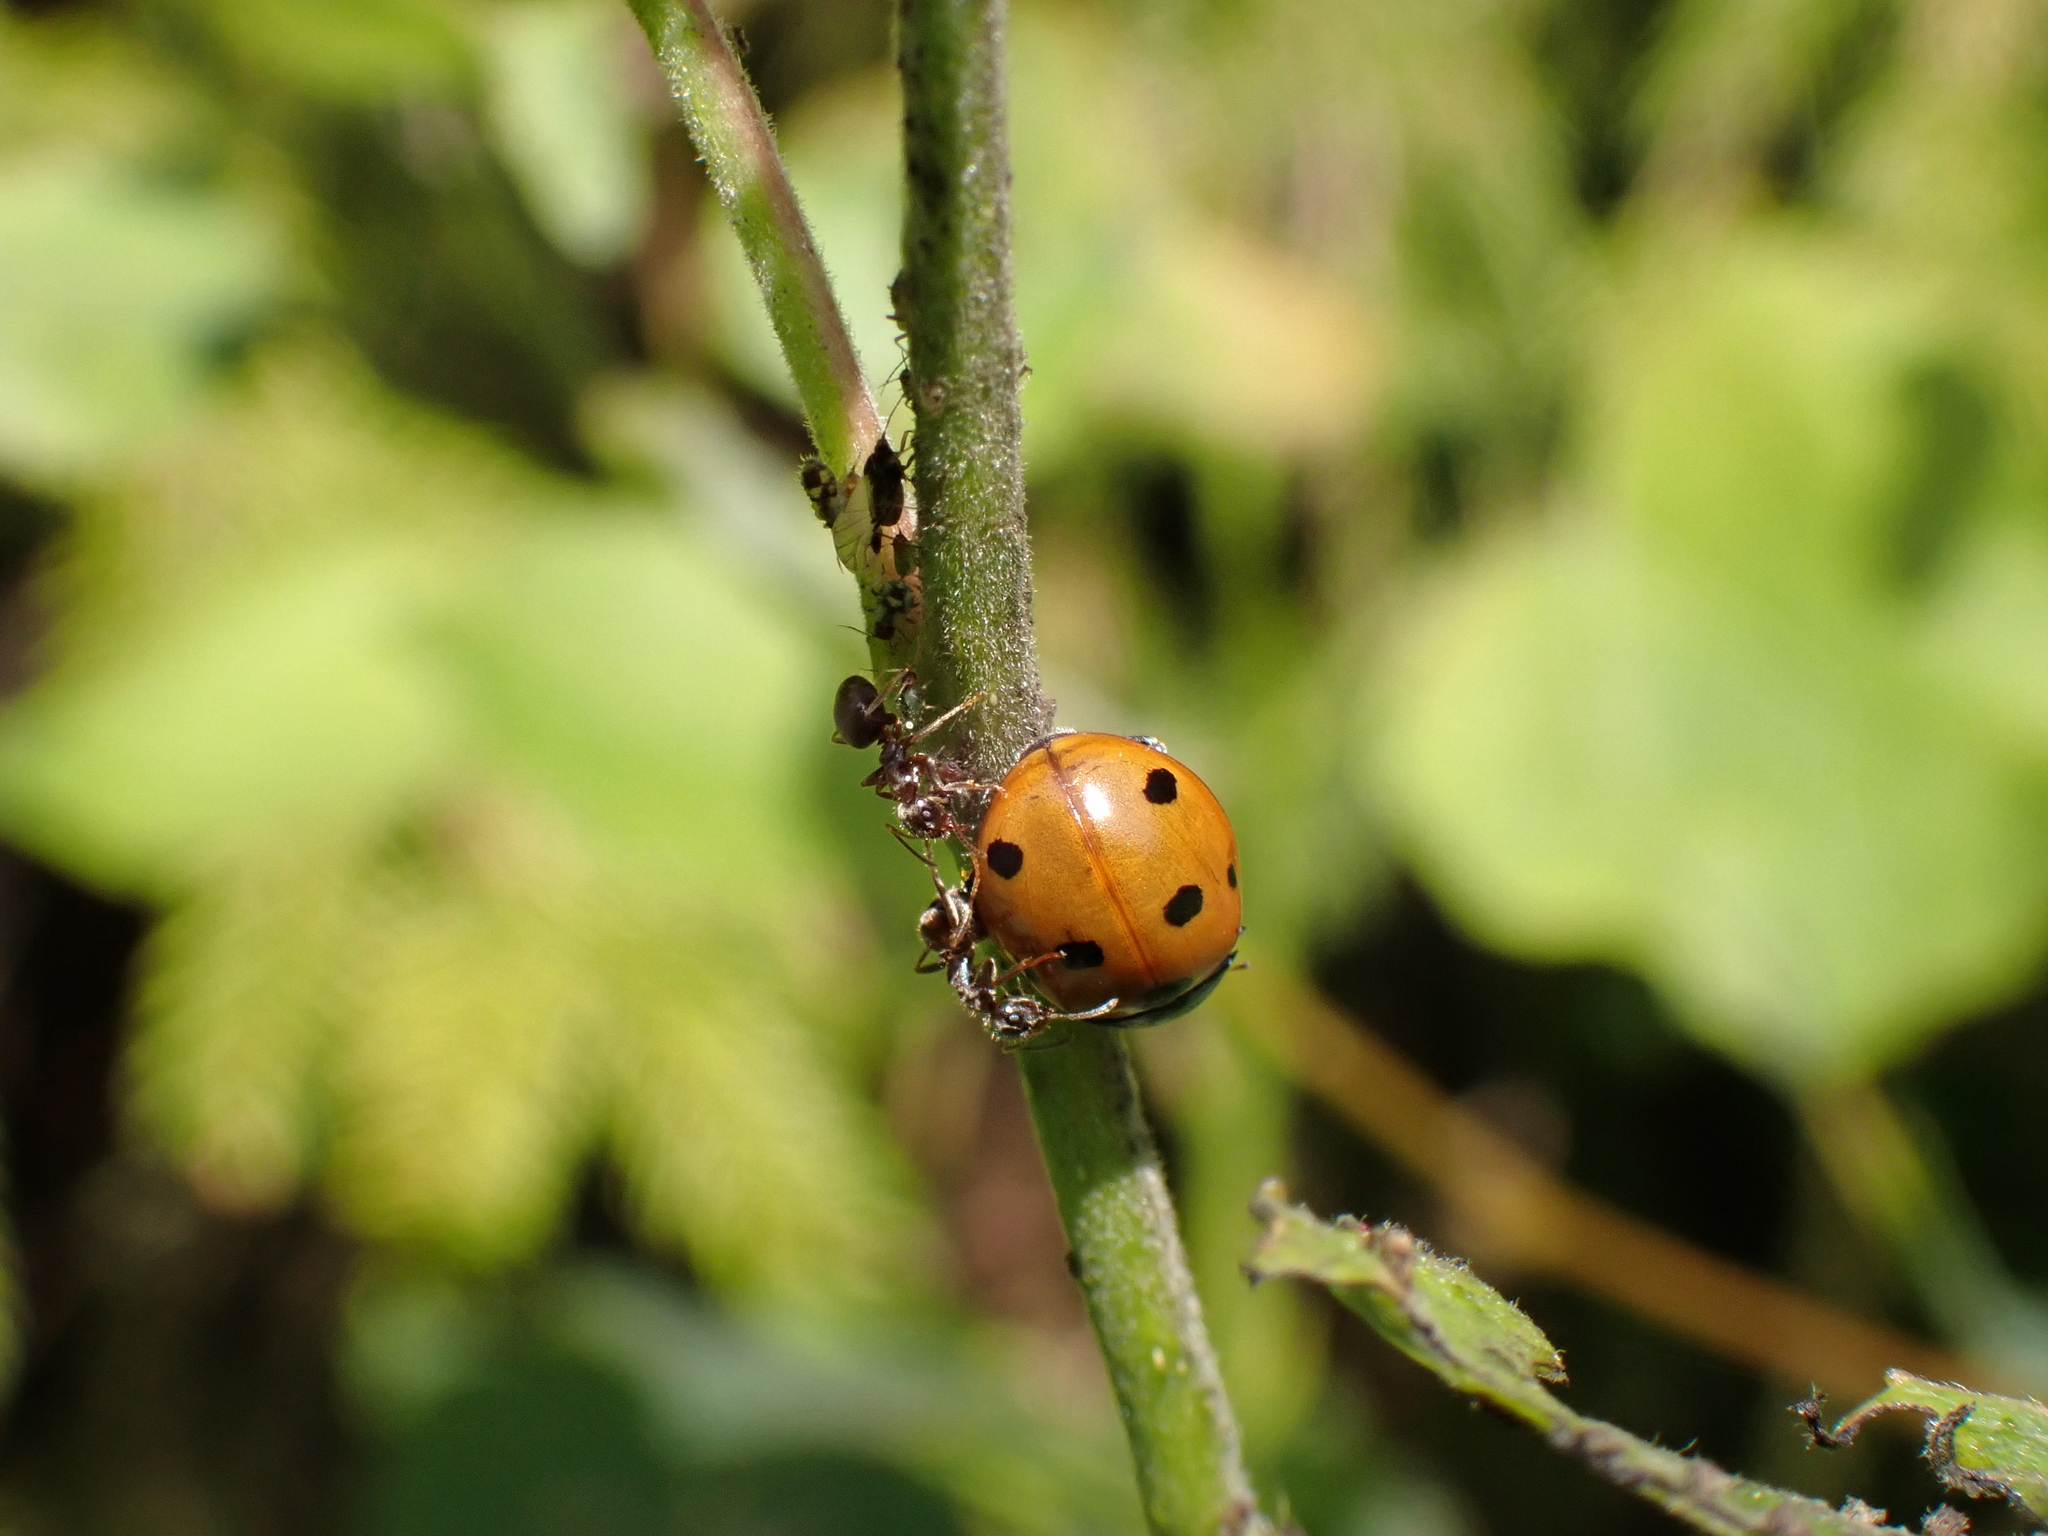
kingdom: Animalia
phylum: Arthropoda
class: Insecta
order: Hymenoptera
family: Formicidae
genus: Lasius
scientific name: Lasius
